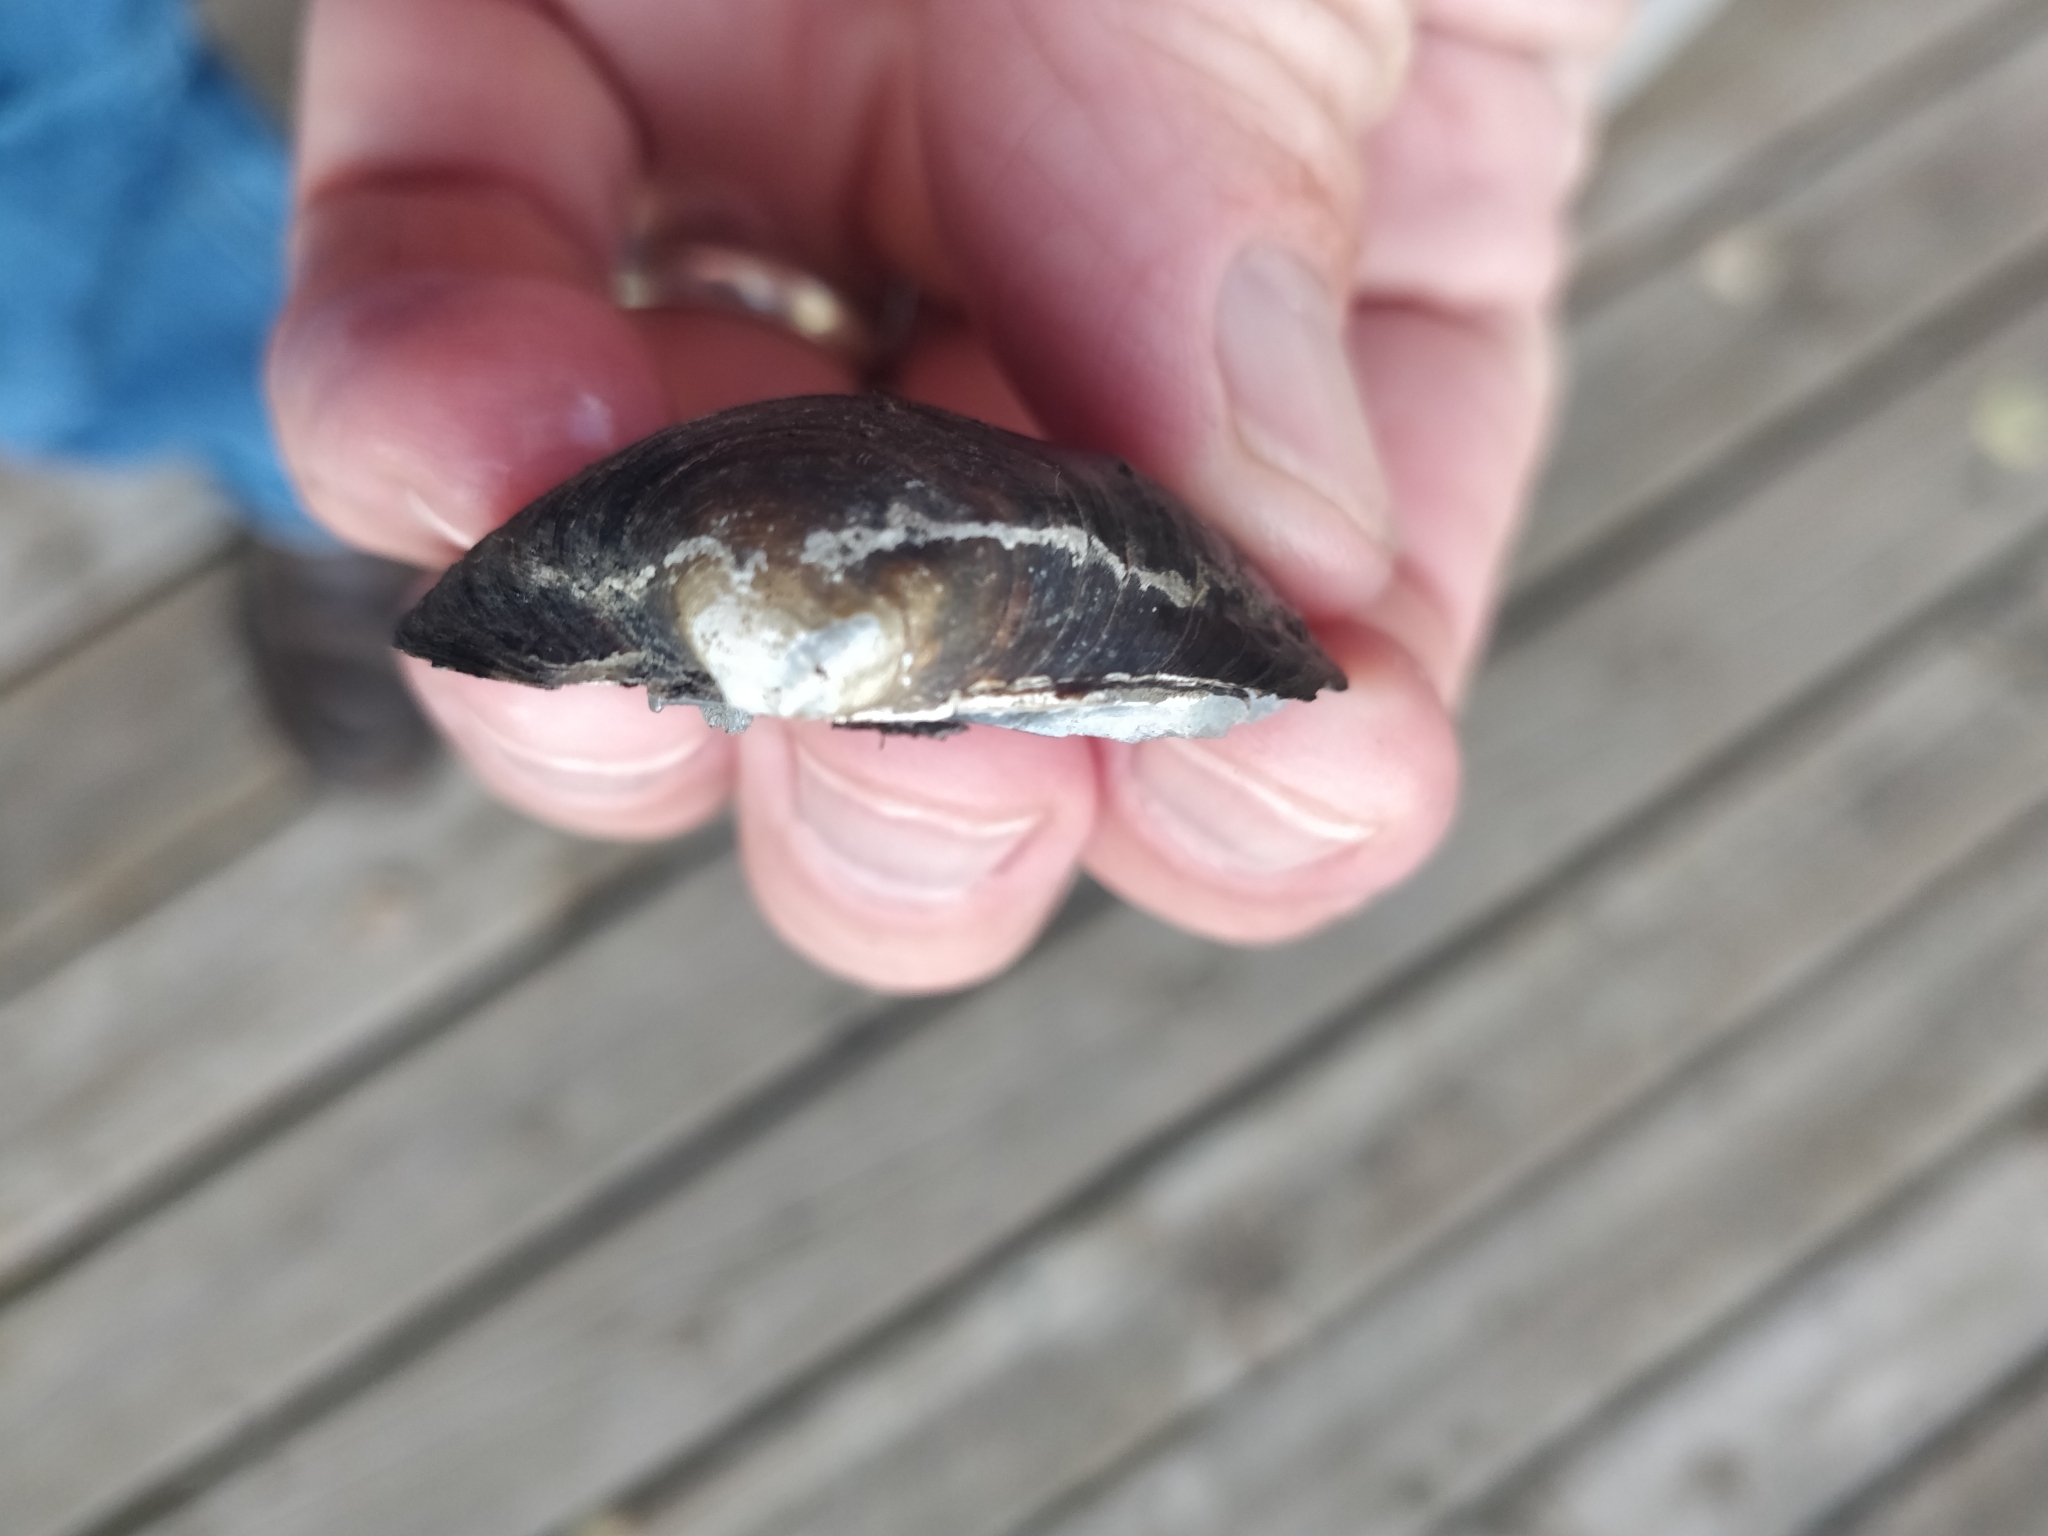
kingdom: Animalia
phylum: Mollusca
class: Bivalvia
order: Unionida
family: Unionidae
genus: Cyclonaias
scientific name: Cyclonaias pustulosa
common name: Pimpleback
